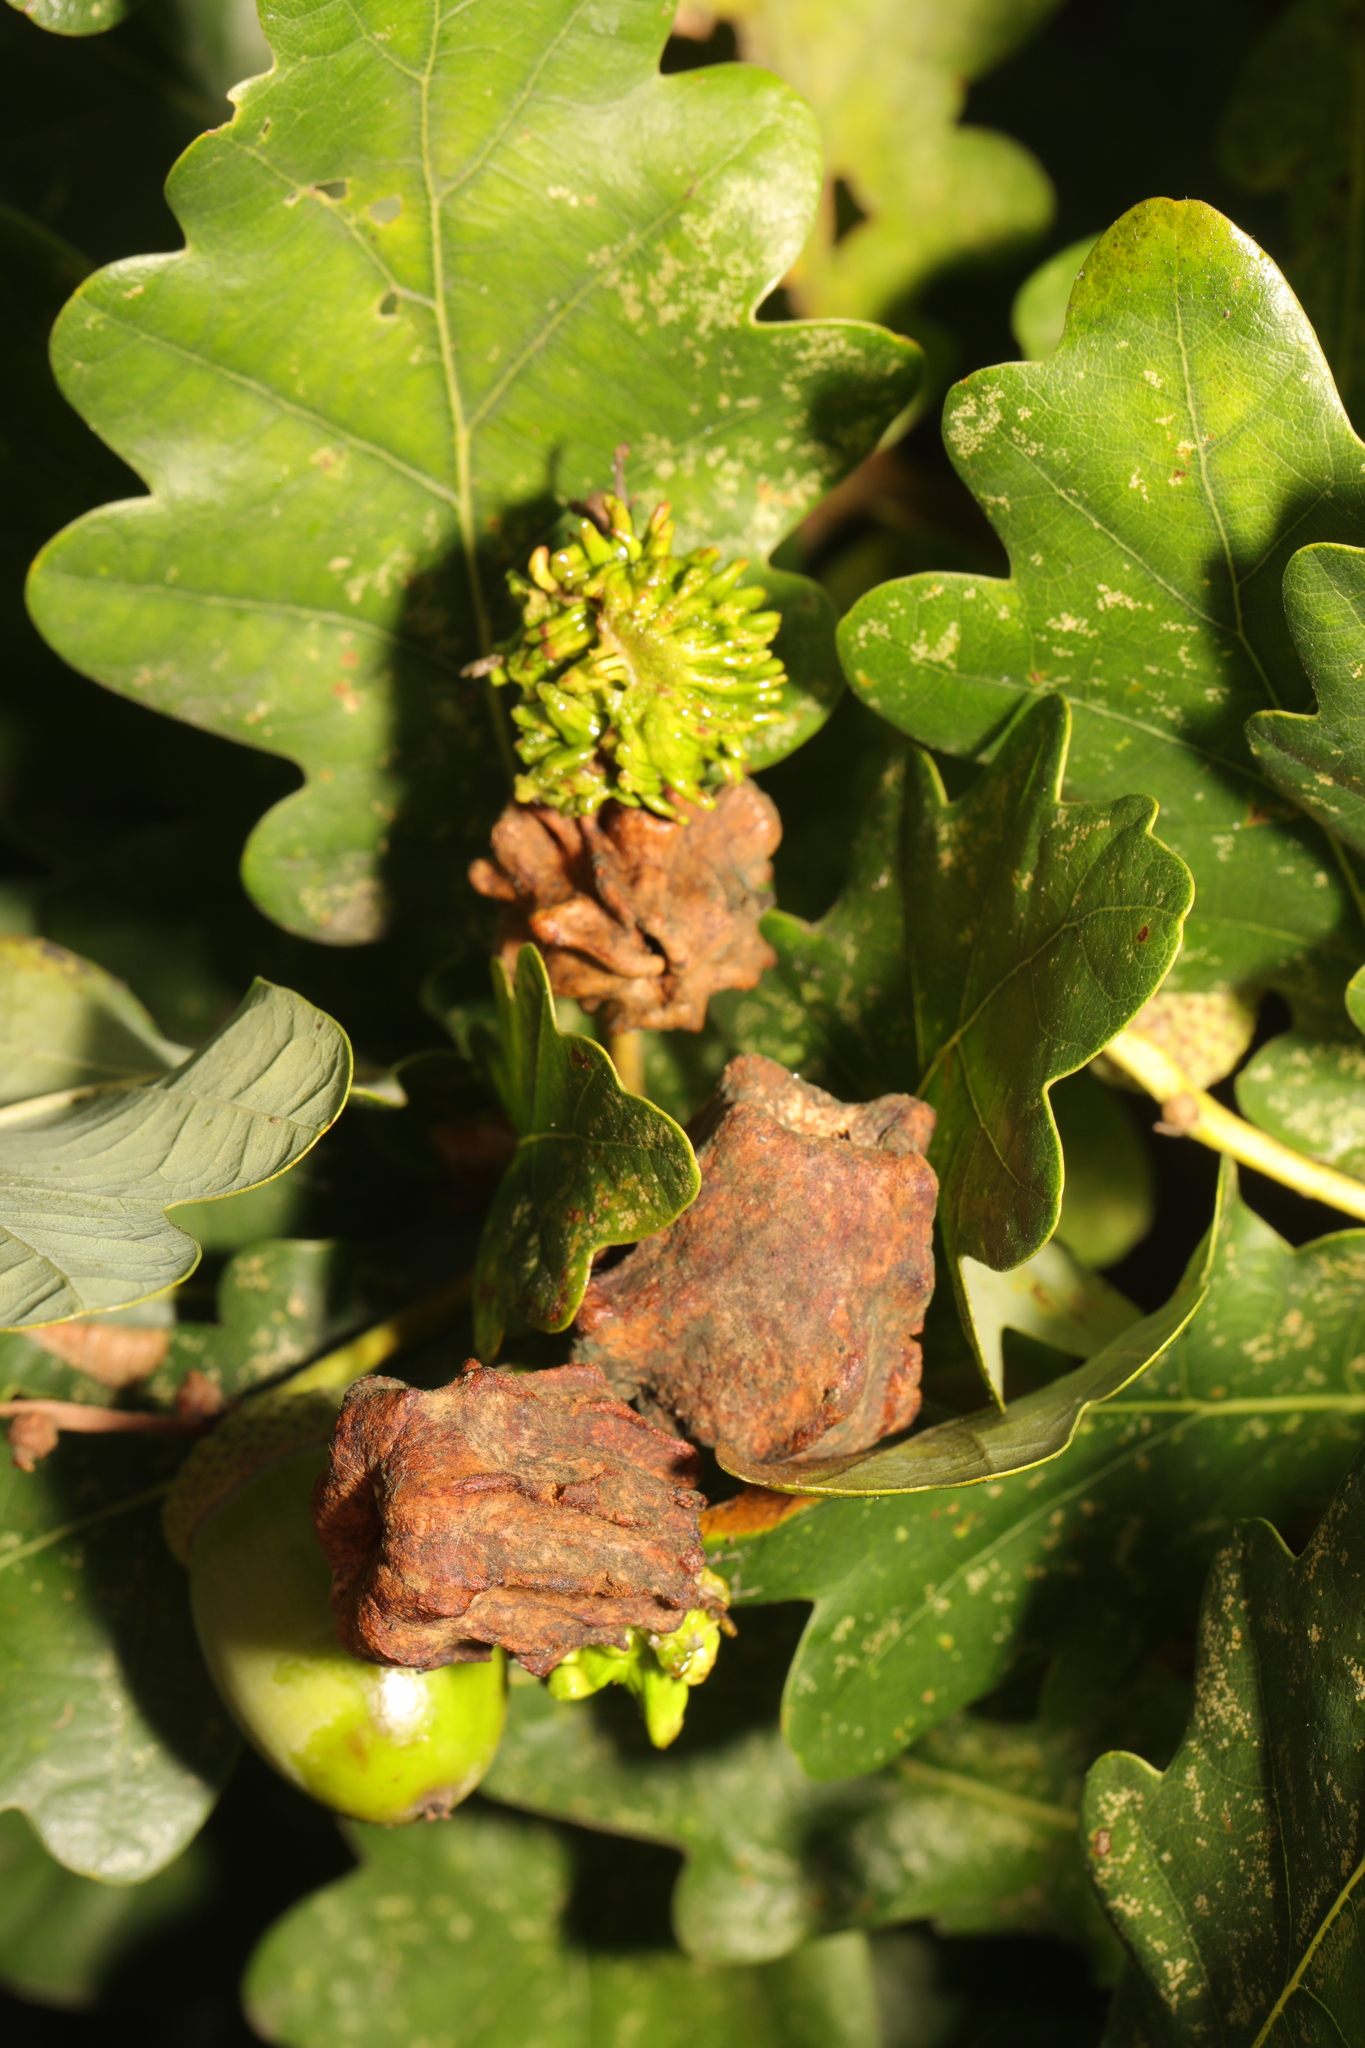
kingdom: Animalia
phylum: Arthropoda
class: Insecta
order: Hymenoptera
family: Cynipidae
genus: Andricus
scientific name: Andricus quercuscalicis
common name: Knopper gall
